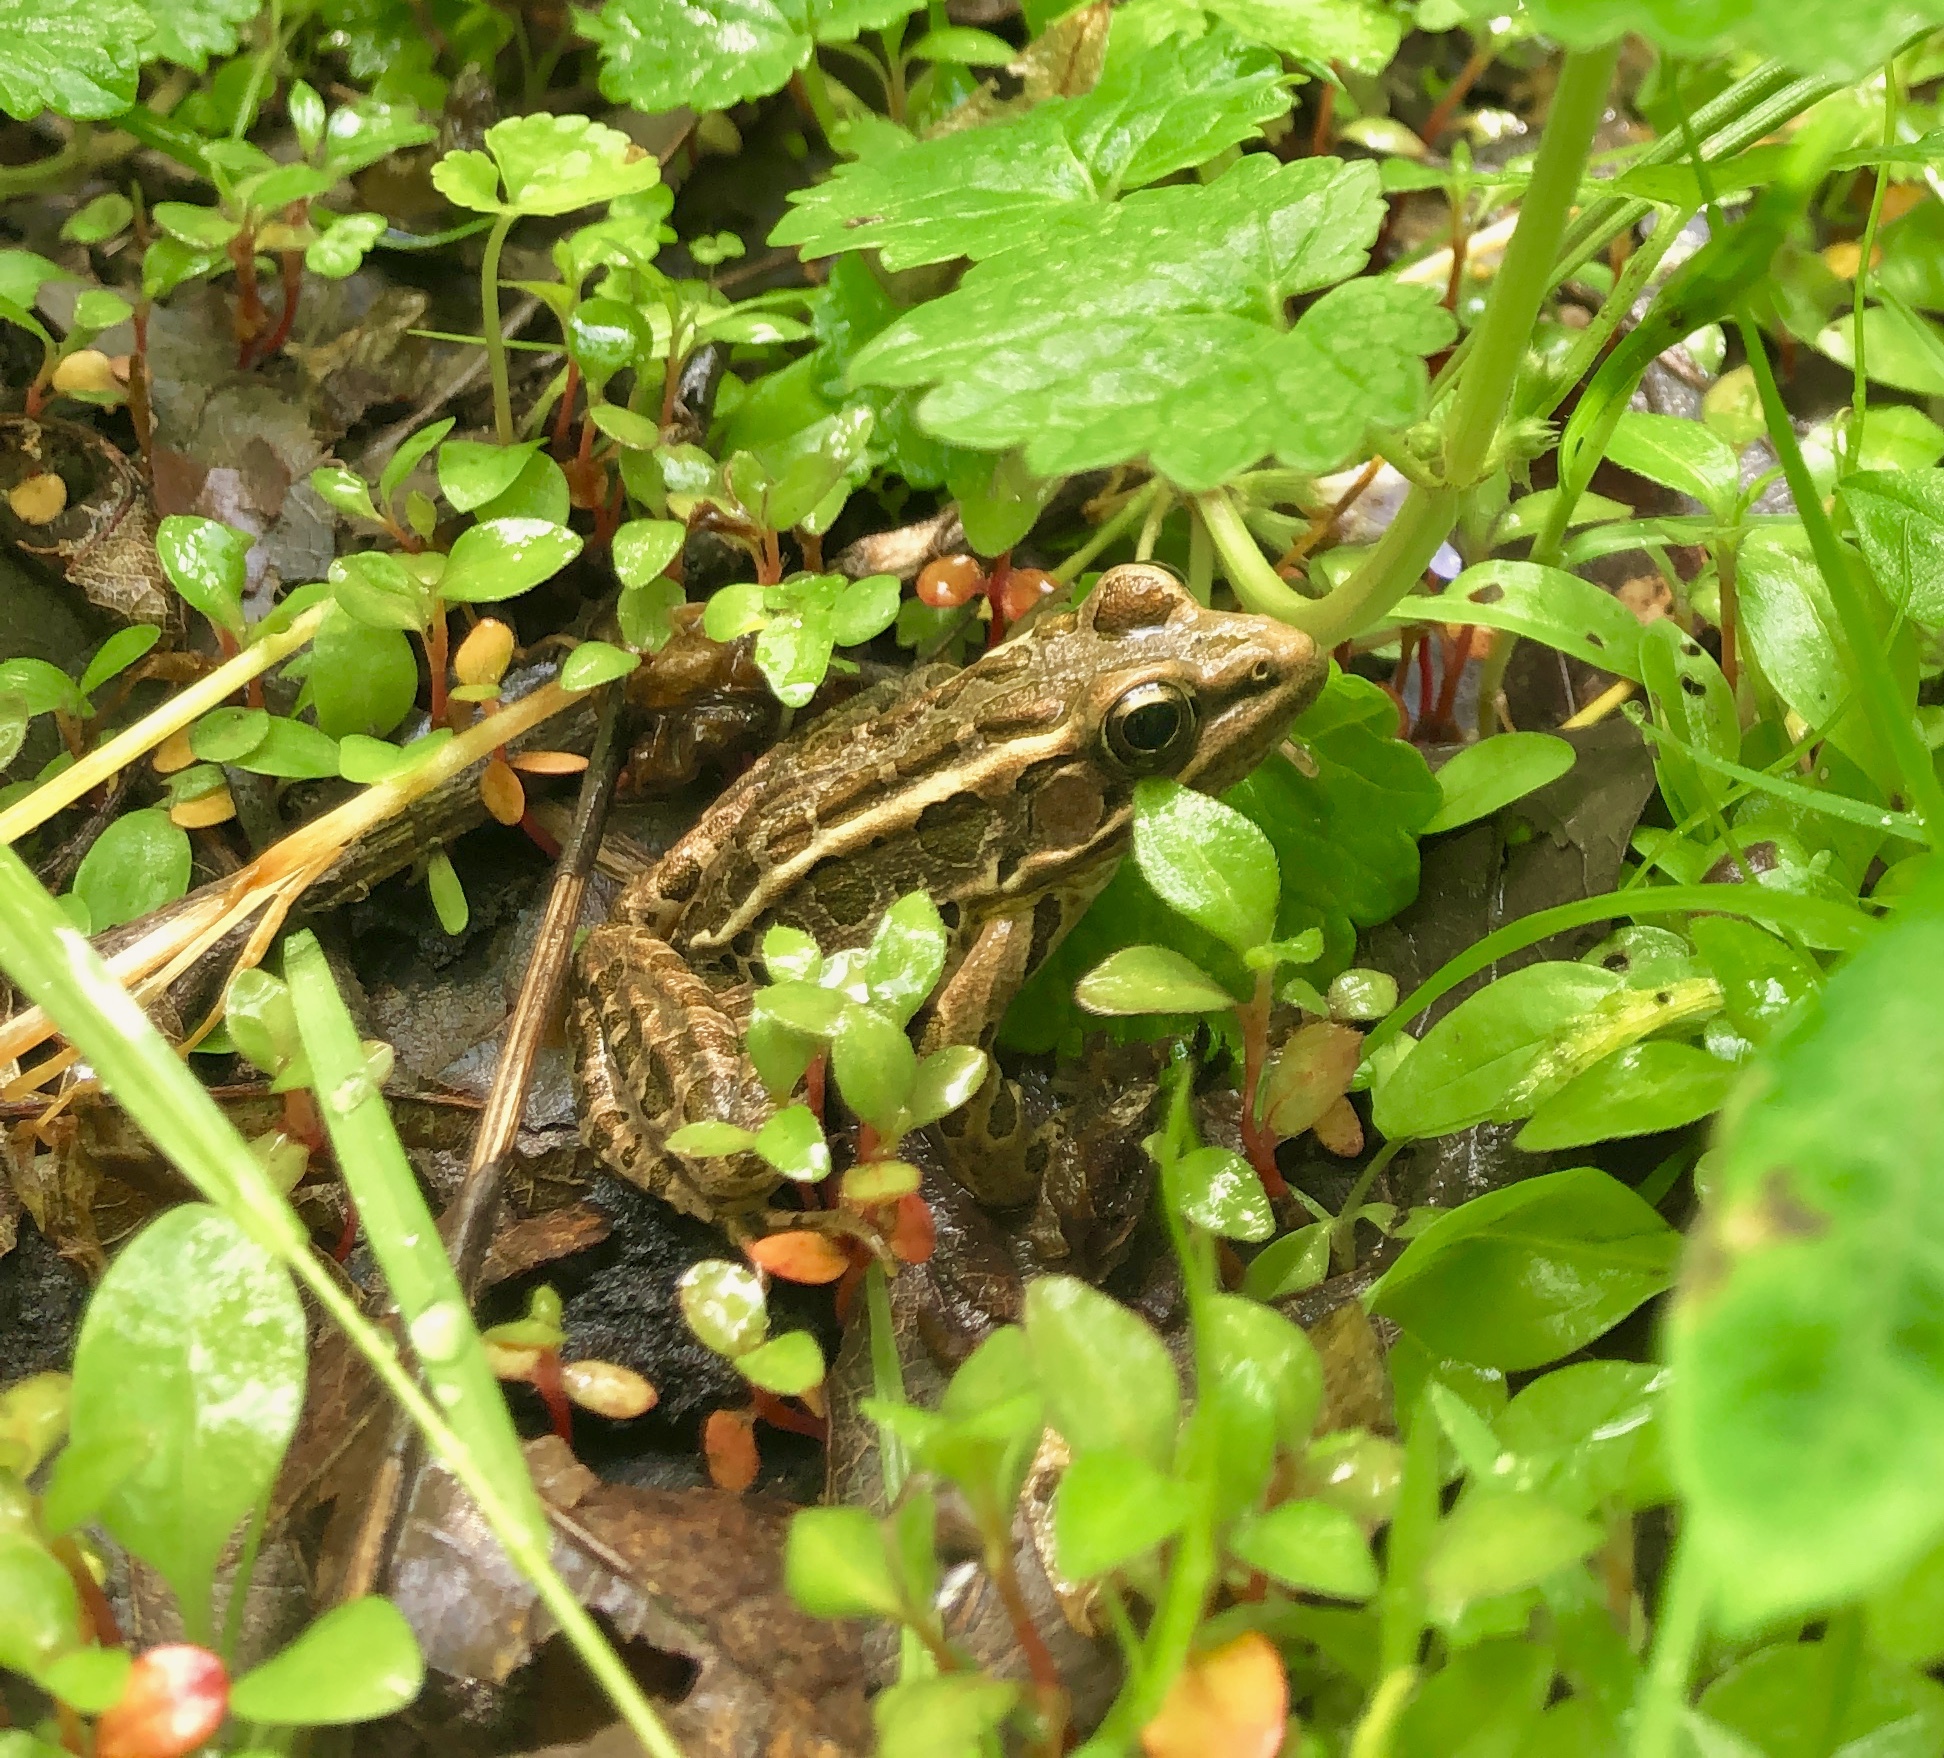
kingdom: Animalia
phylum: Chordata
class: Amphibia
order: Anura
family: Ranidae
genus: Lithobates
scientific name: Lithobates palustris
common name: Pickerel frog
